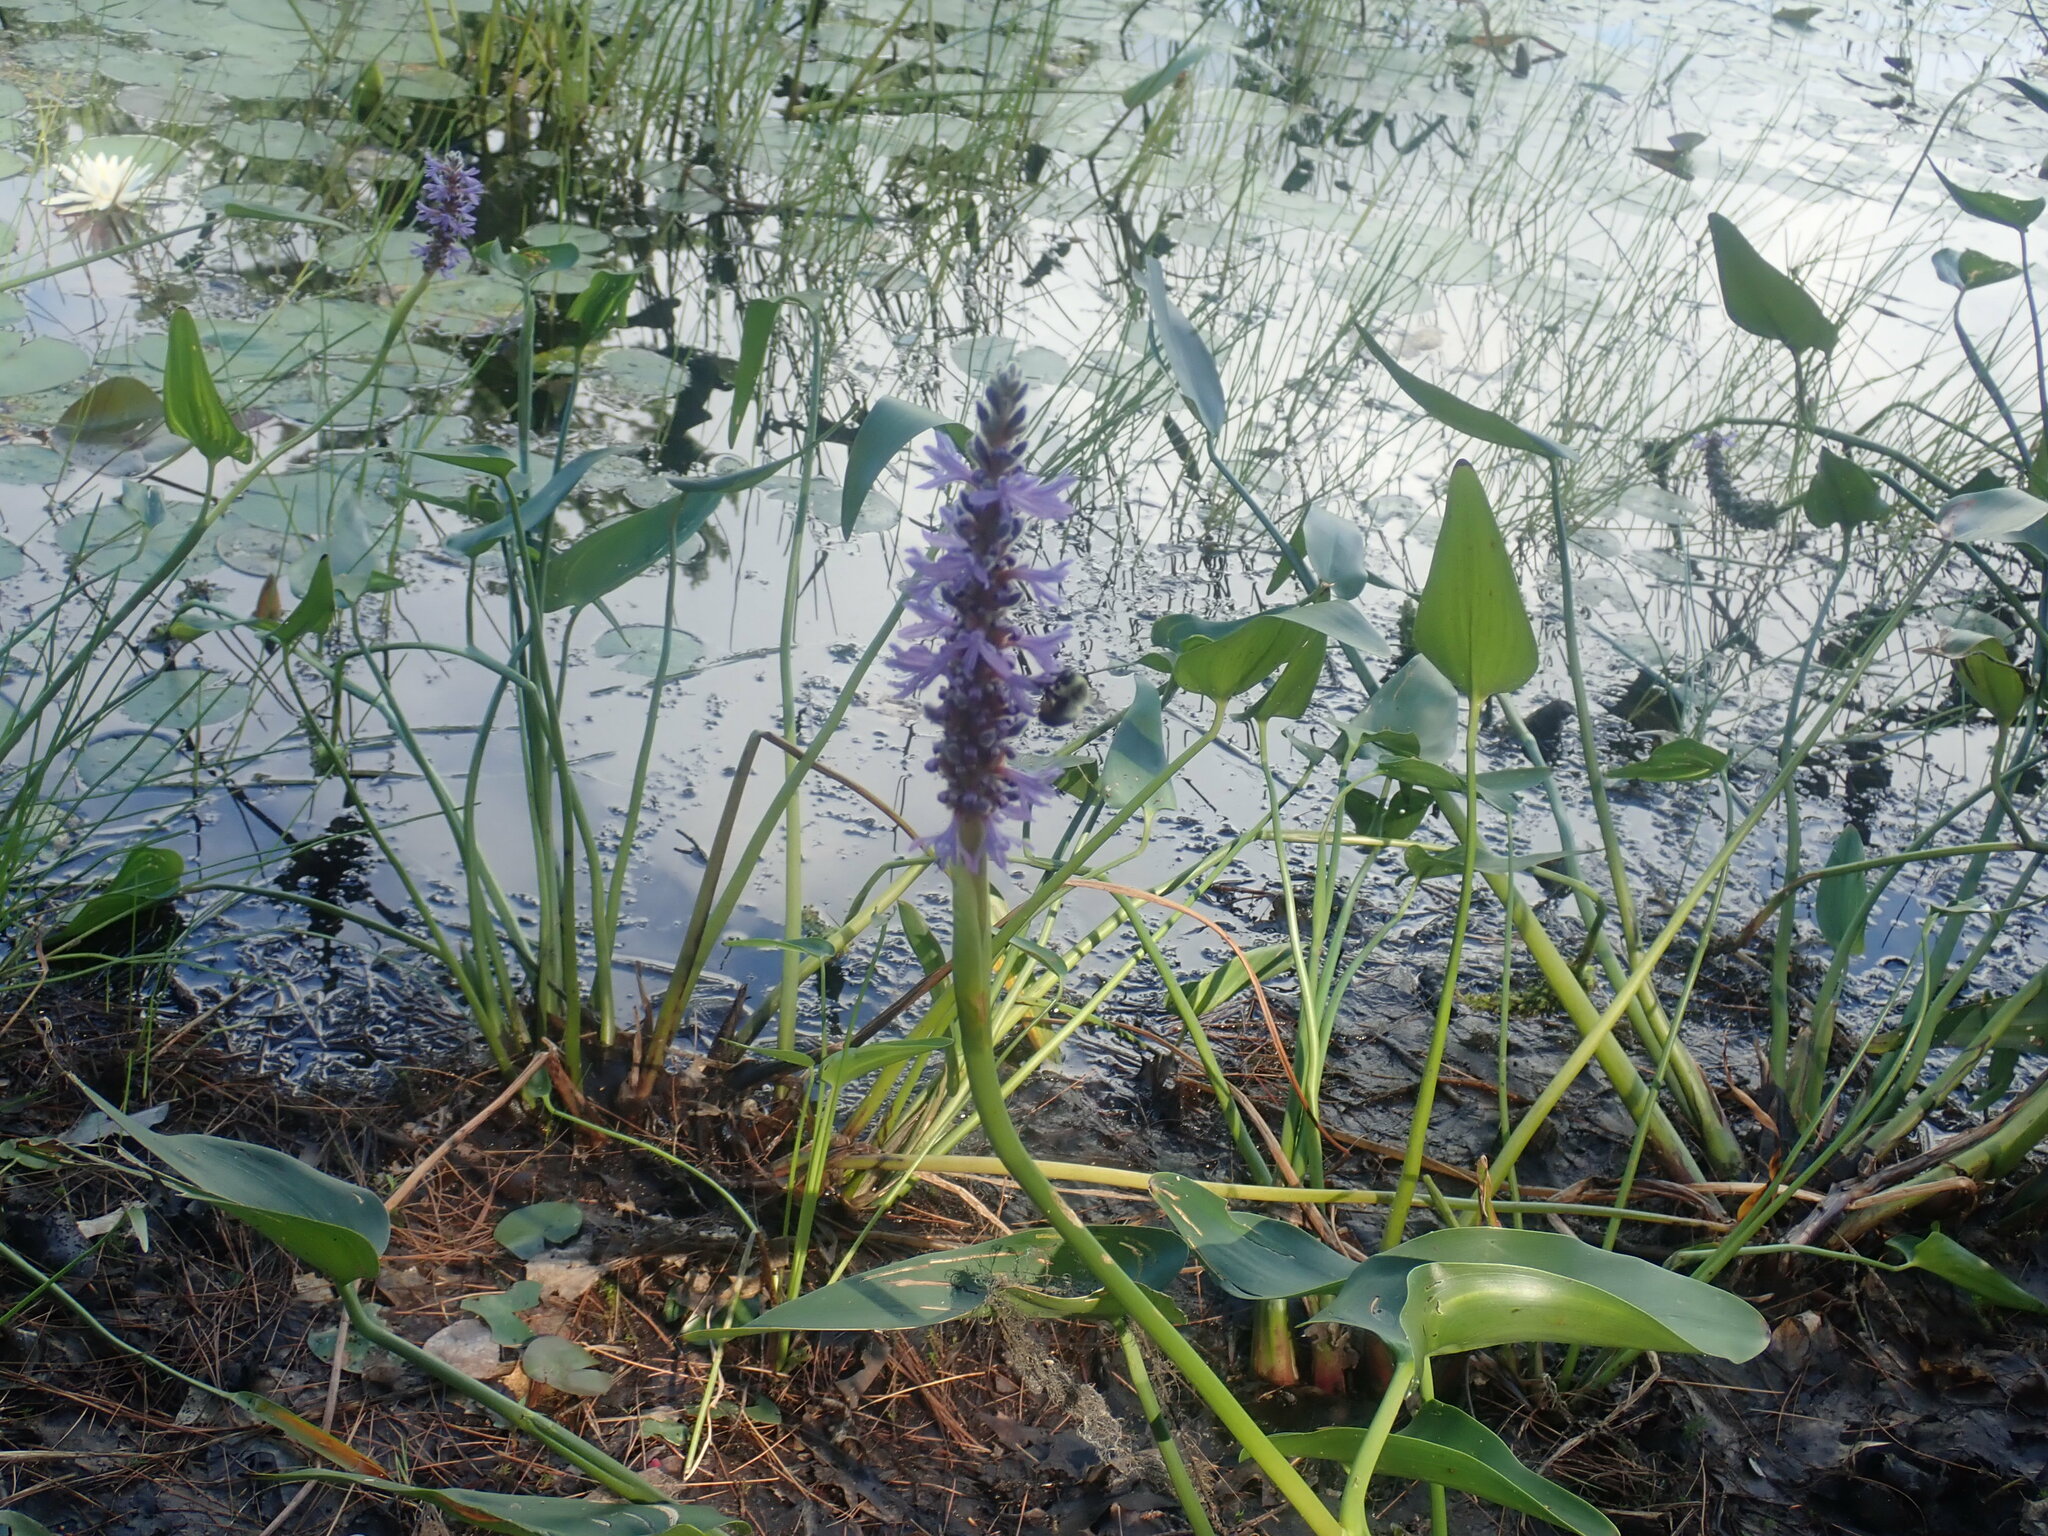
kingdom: Plantae
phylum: Tracheophyta
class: Liliopsida
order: Commelinales
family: Pontederiaceae
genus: Pontederia
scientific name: Pontederia cordata
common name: Pickerelweed
